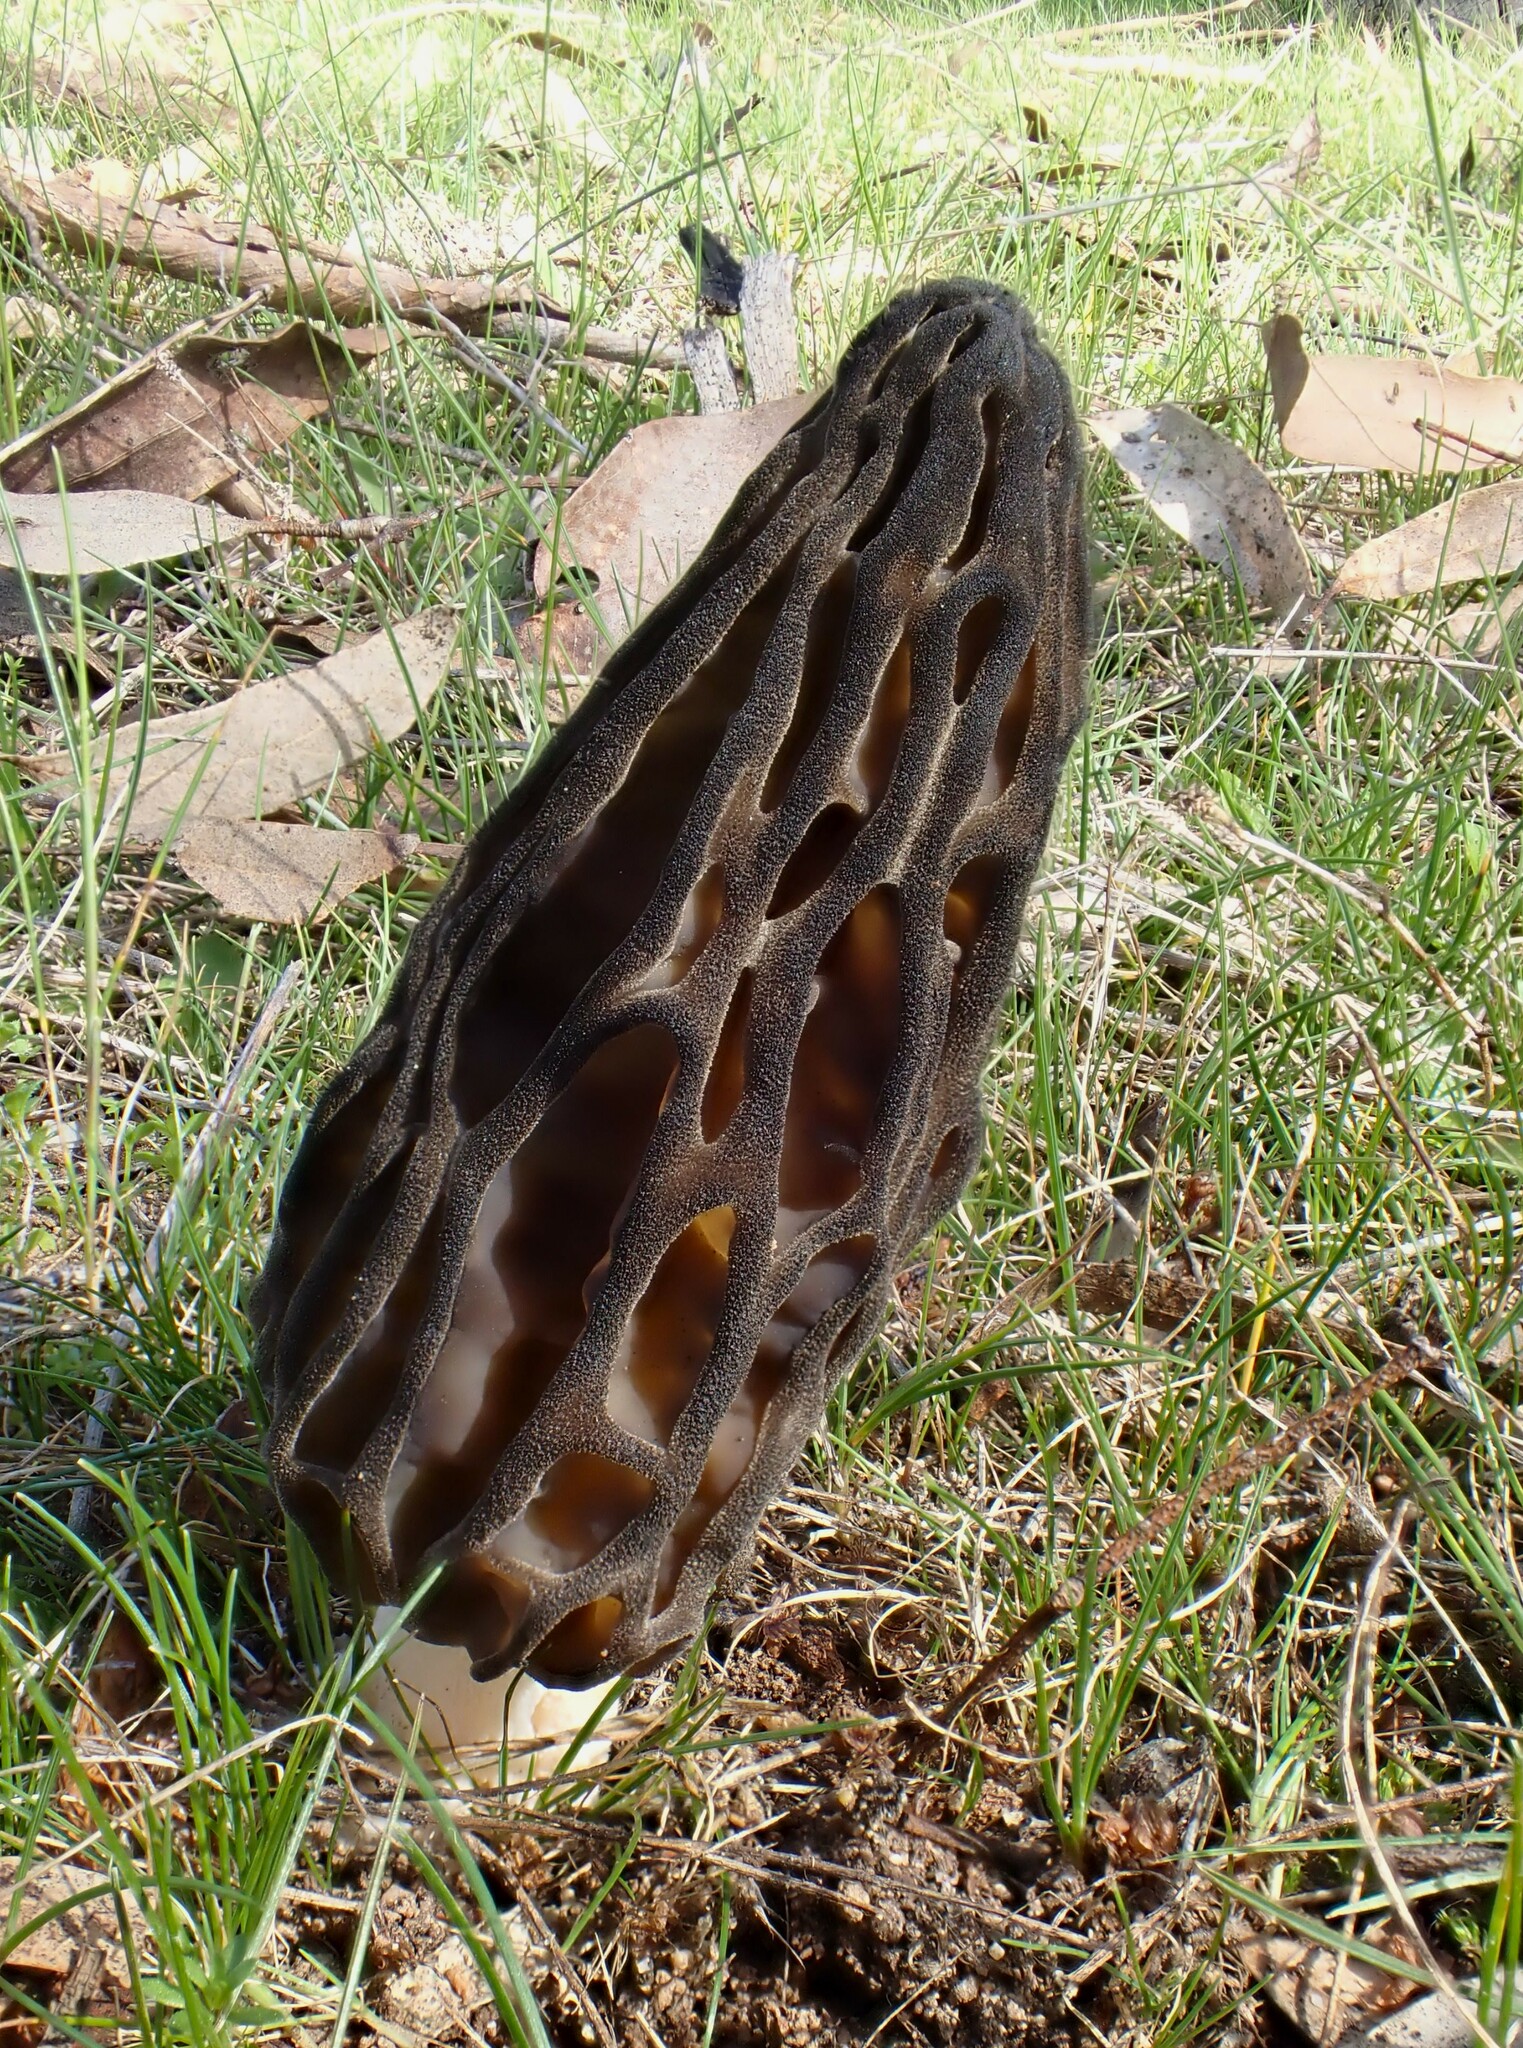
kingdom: Fungi
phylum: Ascomycota
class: Pezizomycetes
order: Pezizales
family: Morchellaceae
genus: Morchella
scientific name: Morchella australiana
